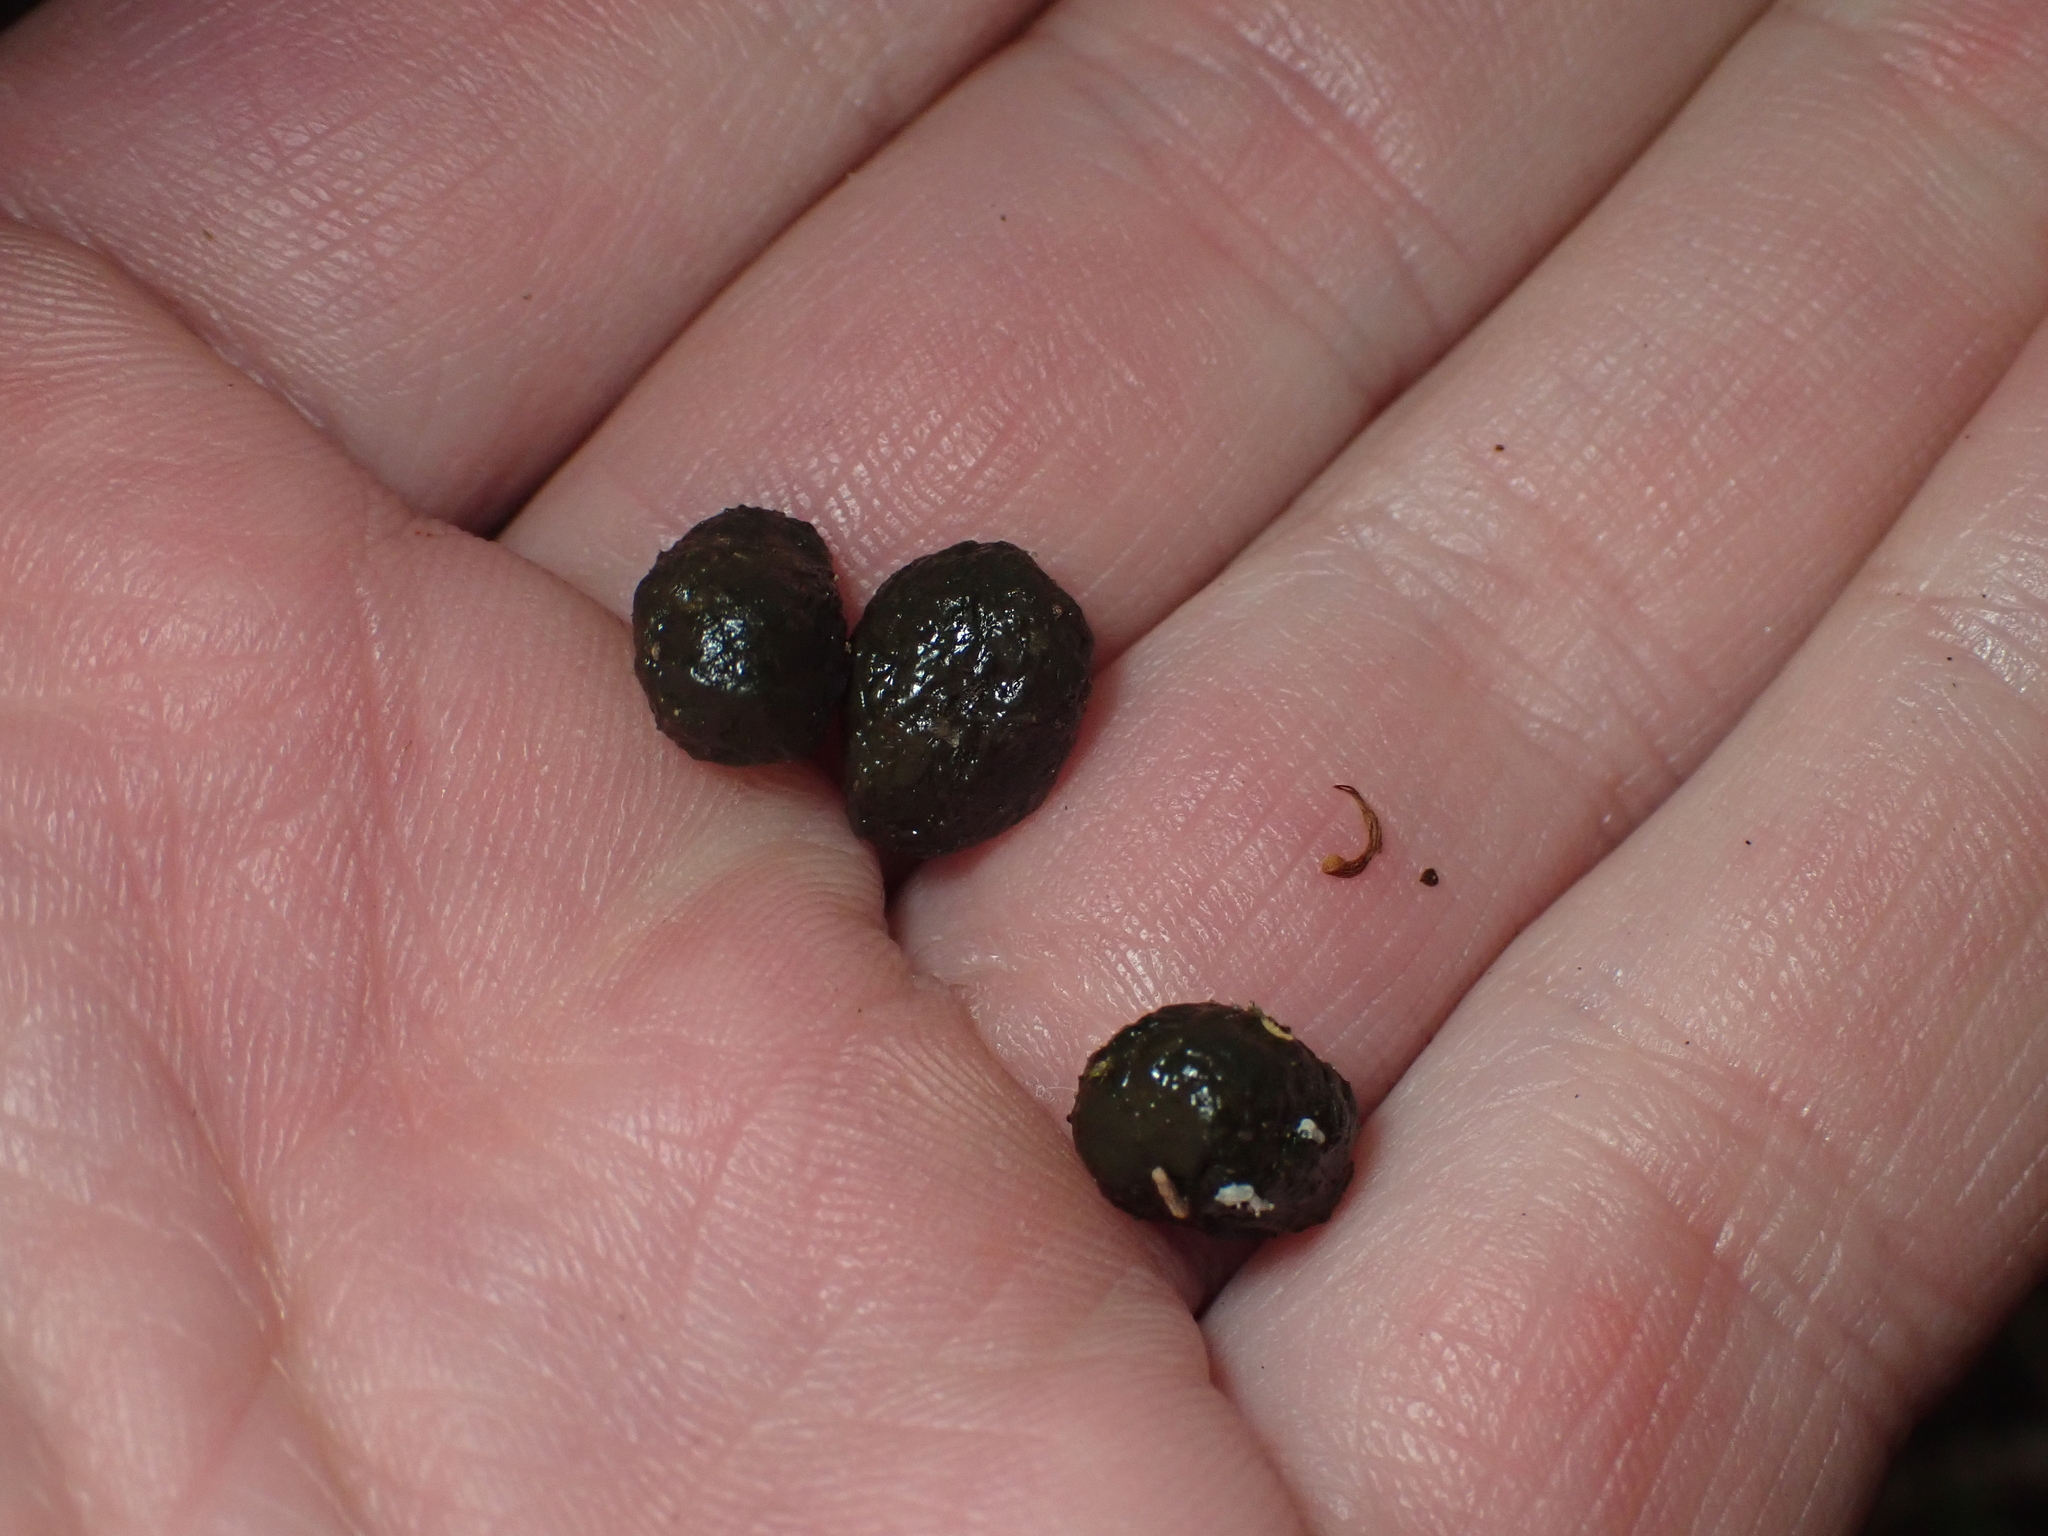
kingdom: Animalia
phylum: Chordata
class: Mammalia
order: Lagomorpha
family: Leporidae
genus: Oryctolagus
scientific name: Oryctolagus cuniculus
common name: European rabbit
